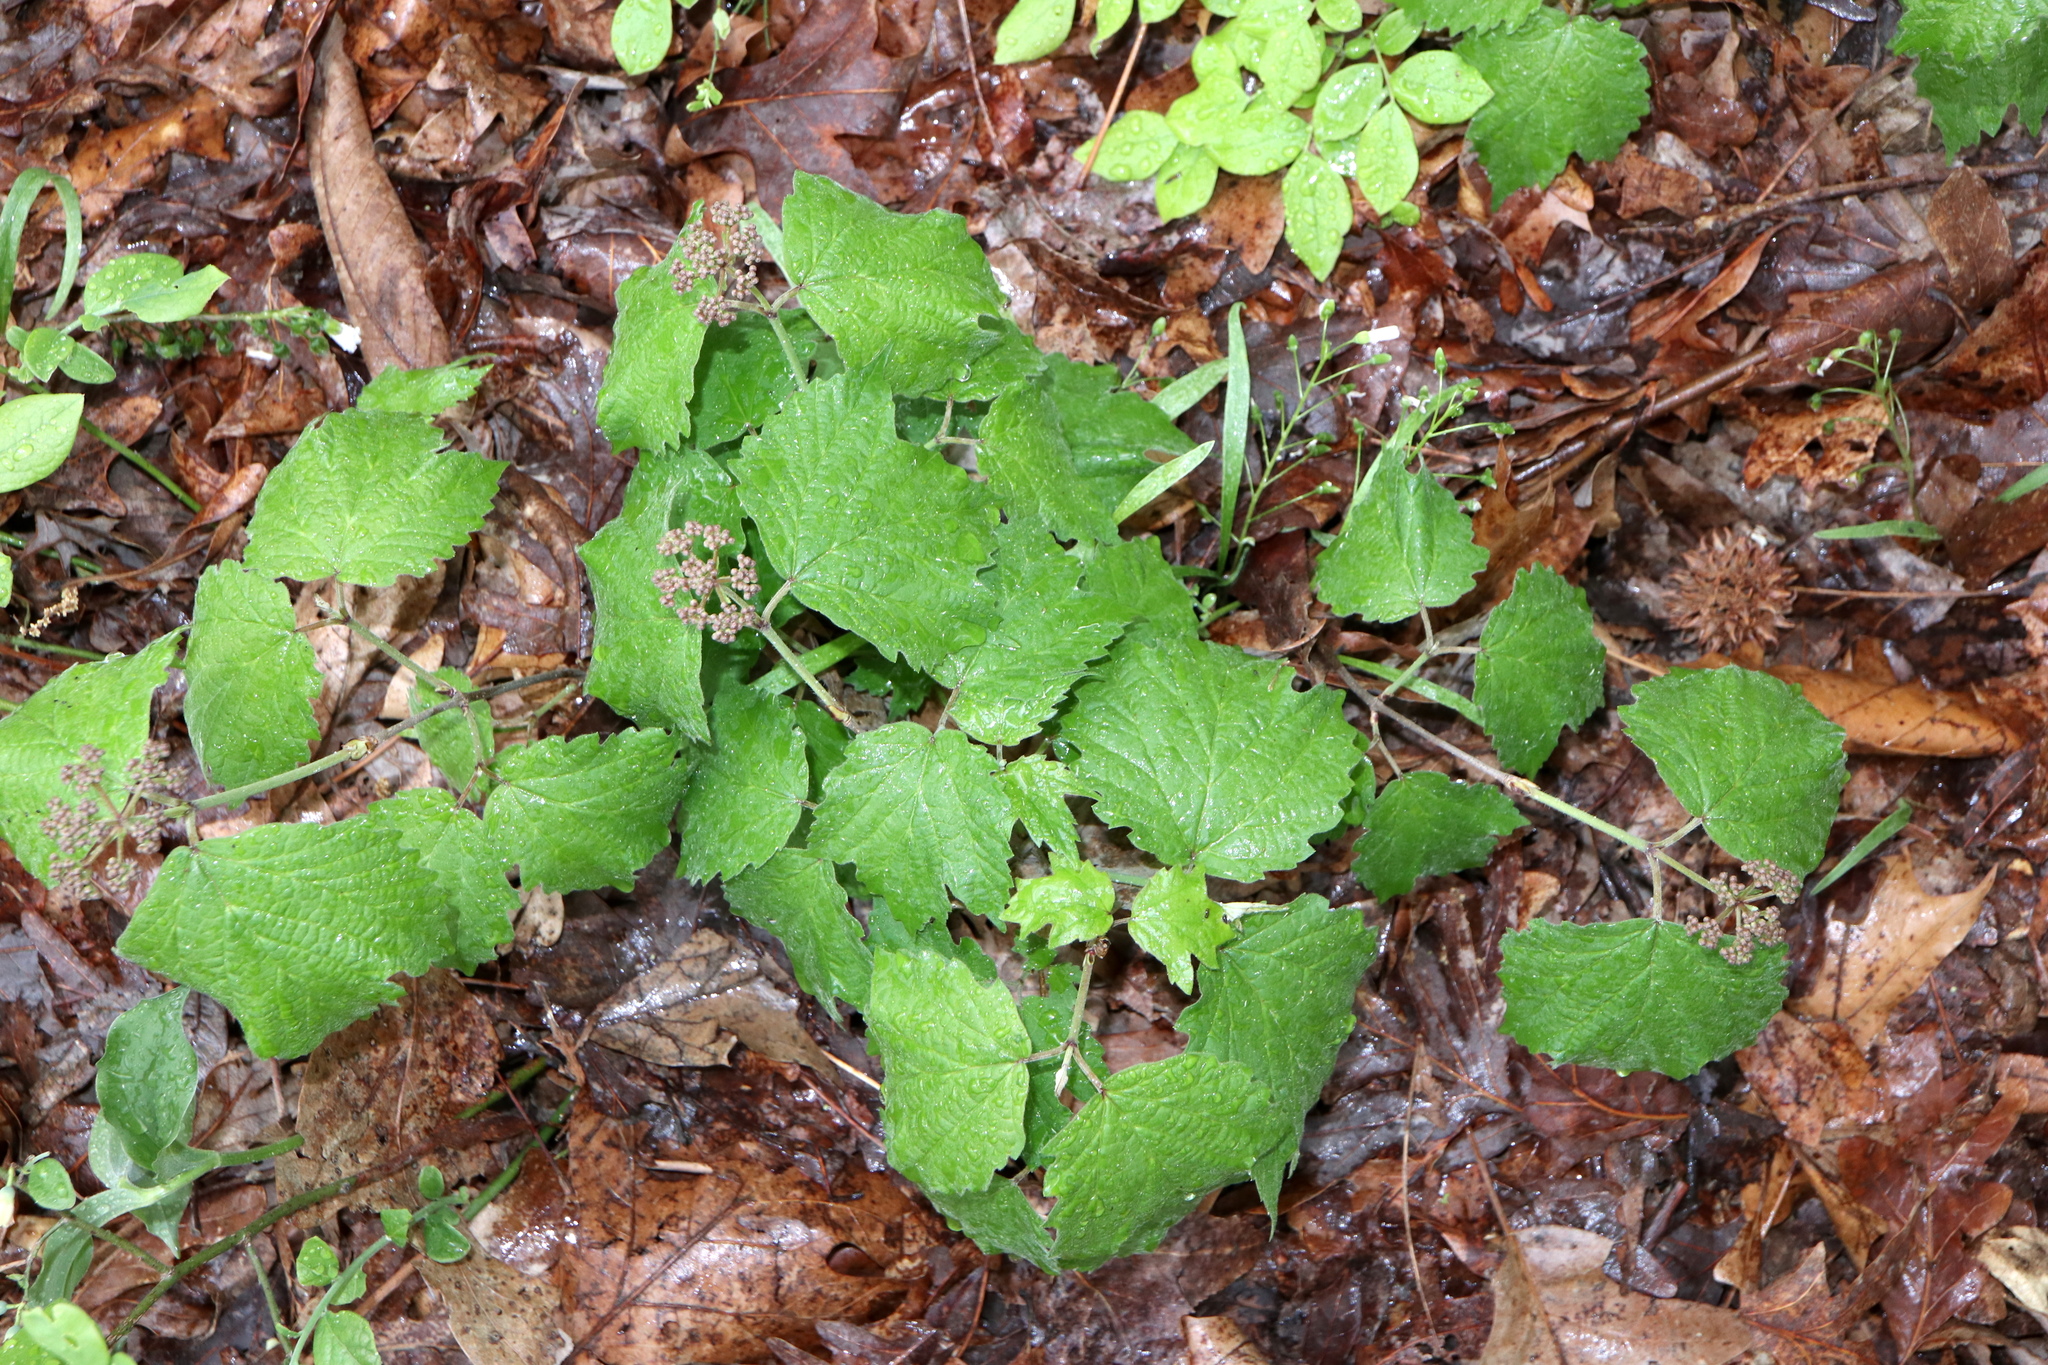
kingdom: Plantae
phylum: Tracheophyta
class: Magnoliopsida
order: Dipsacales
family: Viburnaceae
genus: Viburnum
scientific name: Viburnum acerifolium
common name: Dockmackie
